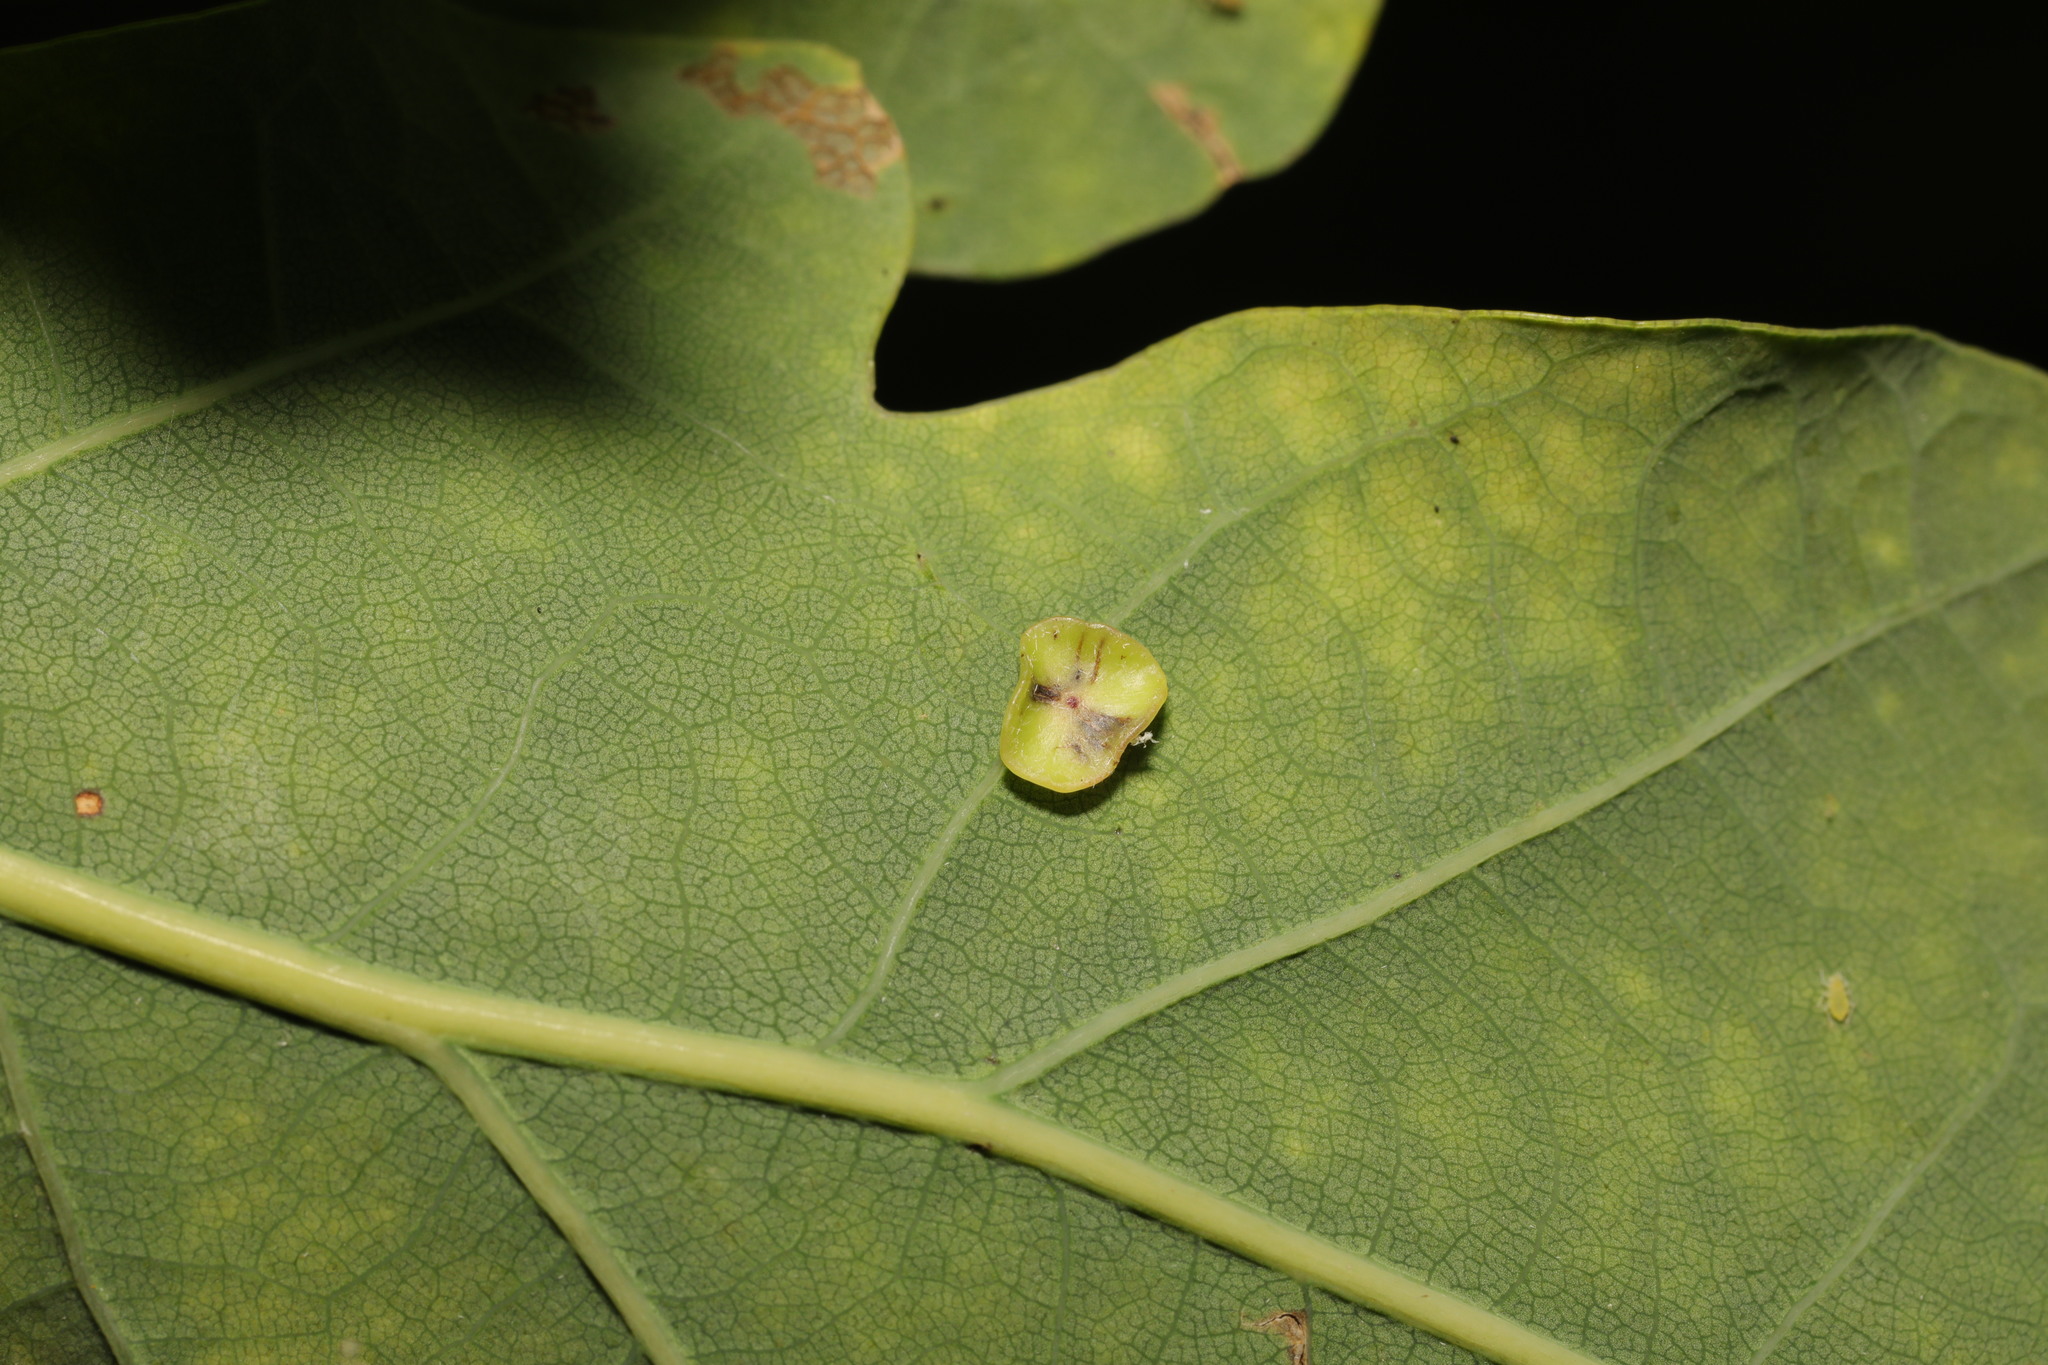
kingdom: Animalia
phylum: Arthropoda
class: Insecta
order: Hymenoptera
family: Cynipidae
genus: Neuroterus
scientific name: Neuroterus albipes
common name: Smooth spangle gall
